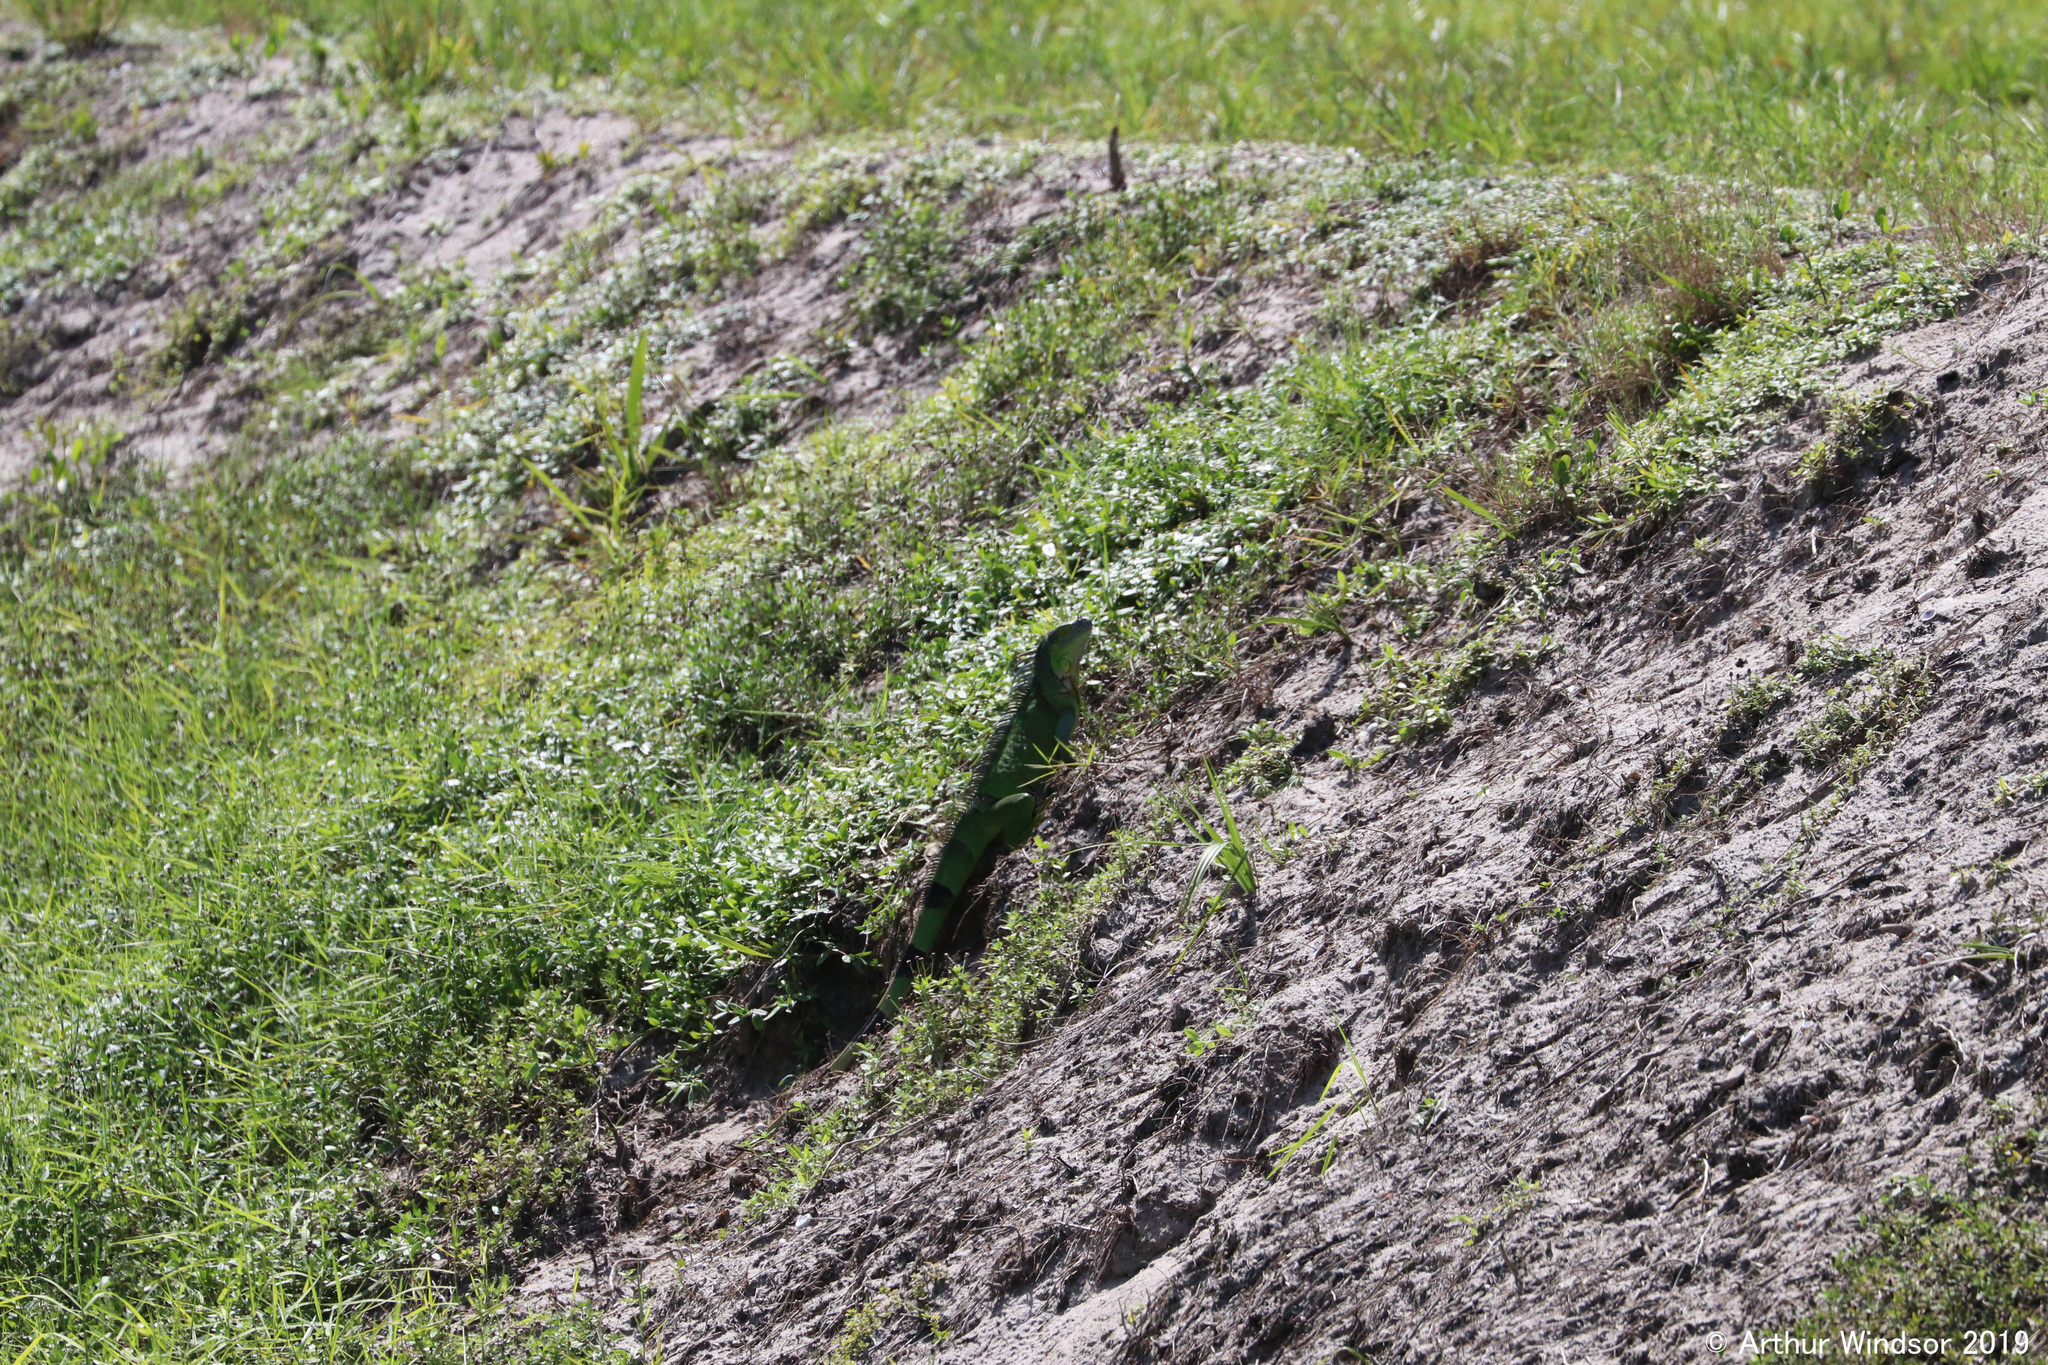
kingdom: Animalia
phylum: Chordata
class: Squamata
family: Iguanidae
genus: Iguana
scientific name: Iguana iguana
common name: Green iguana
